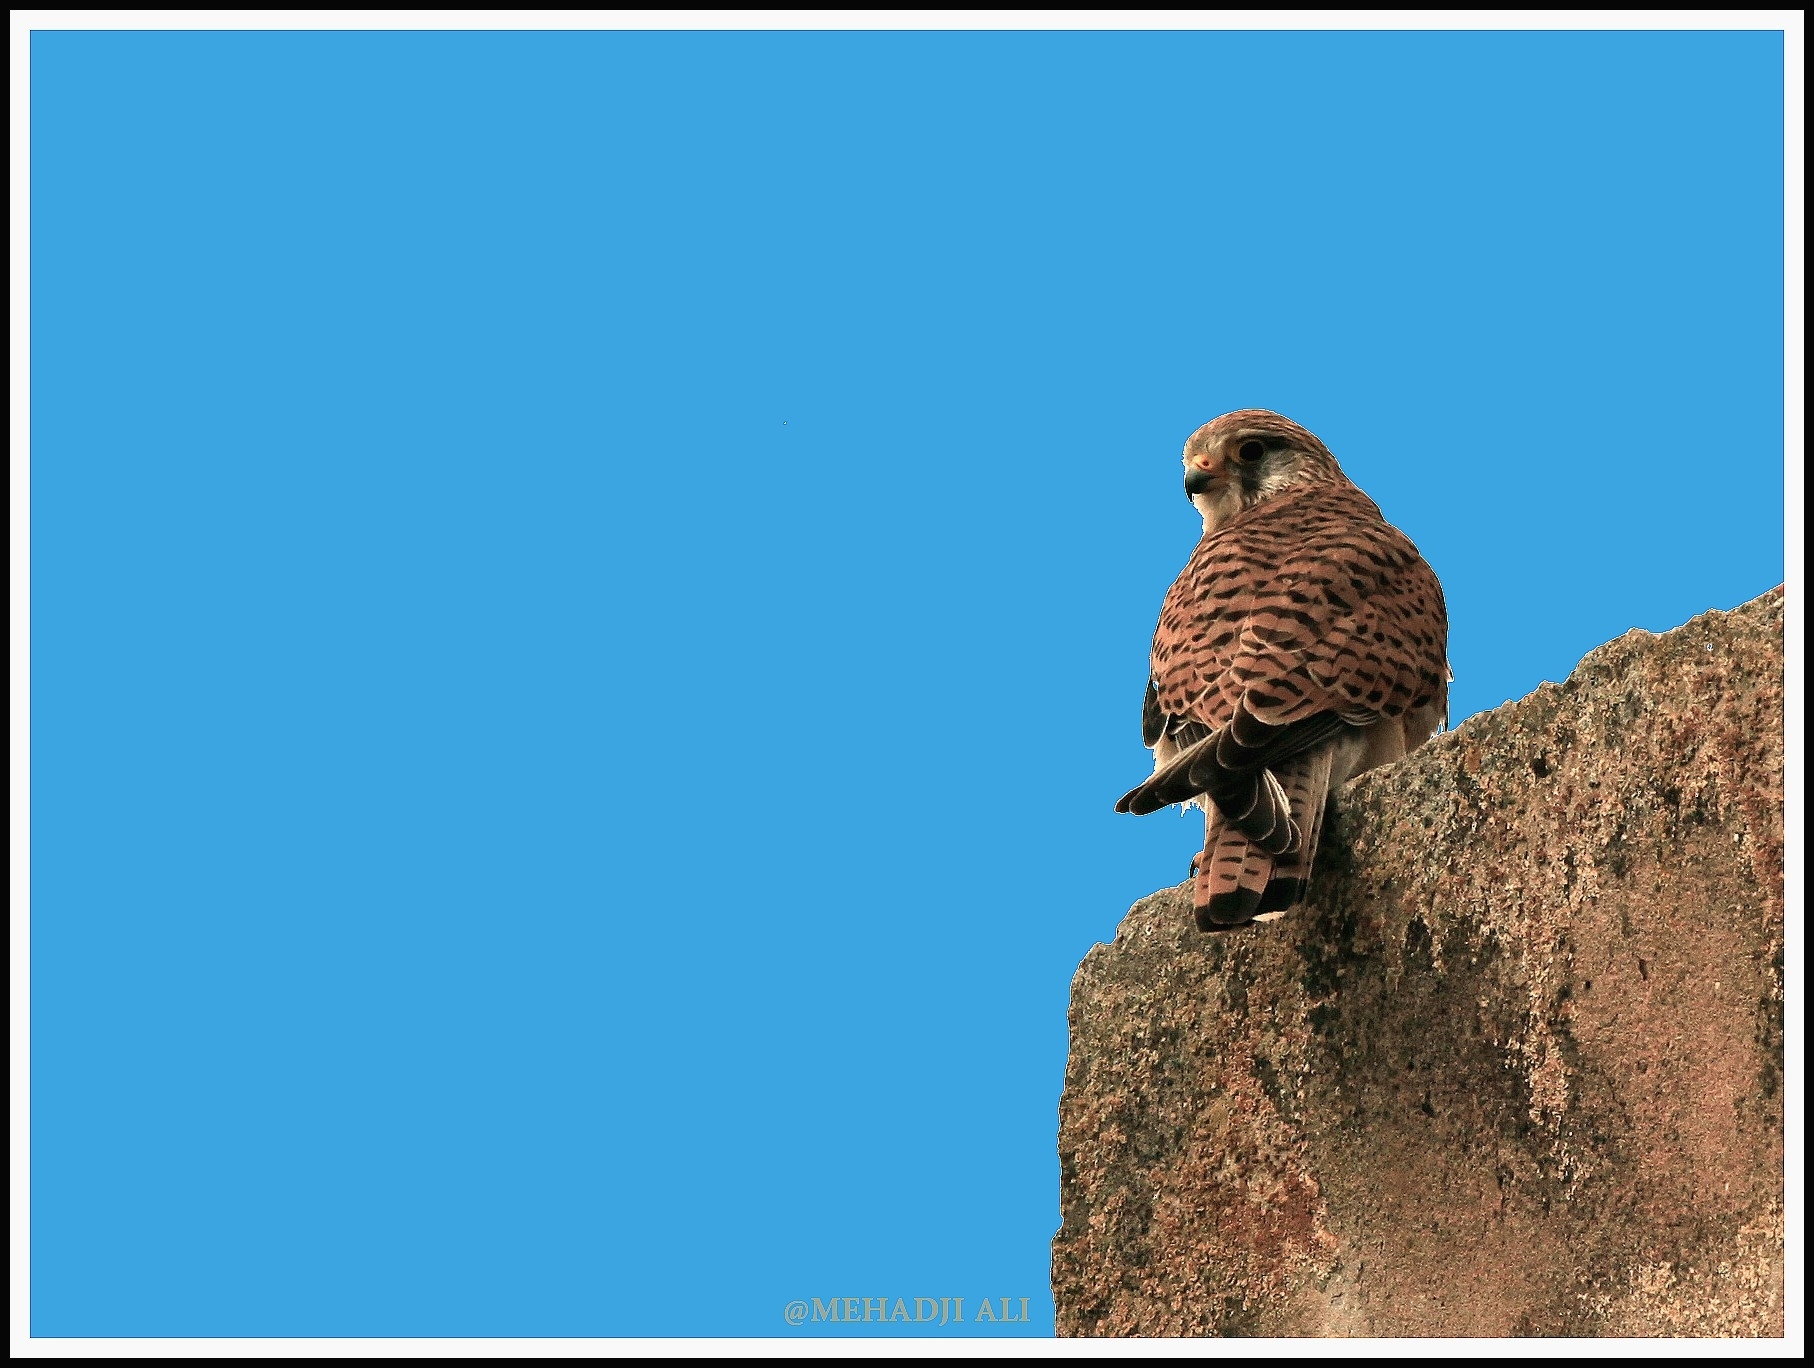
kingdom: Animalia
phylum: Chordata
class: Aves
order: Falconiformes
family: Falconidae
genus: Falco
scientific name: Falco tinnunculus
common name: Common kestrel
